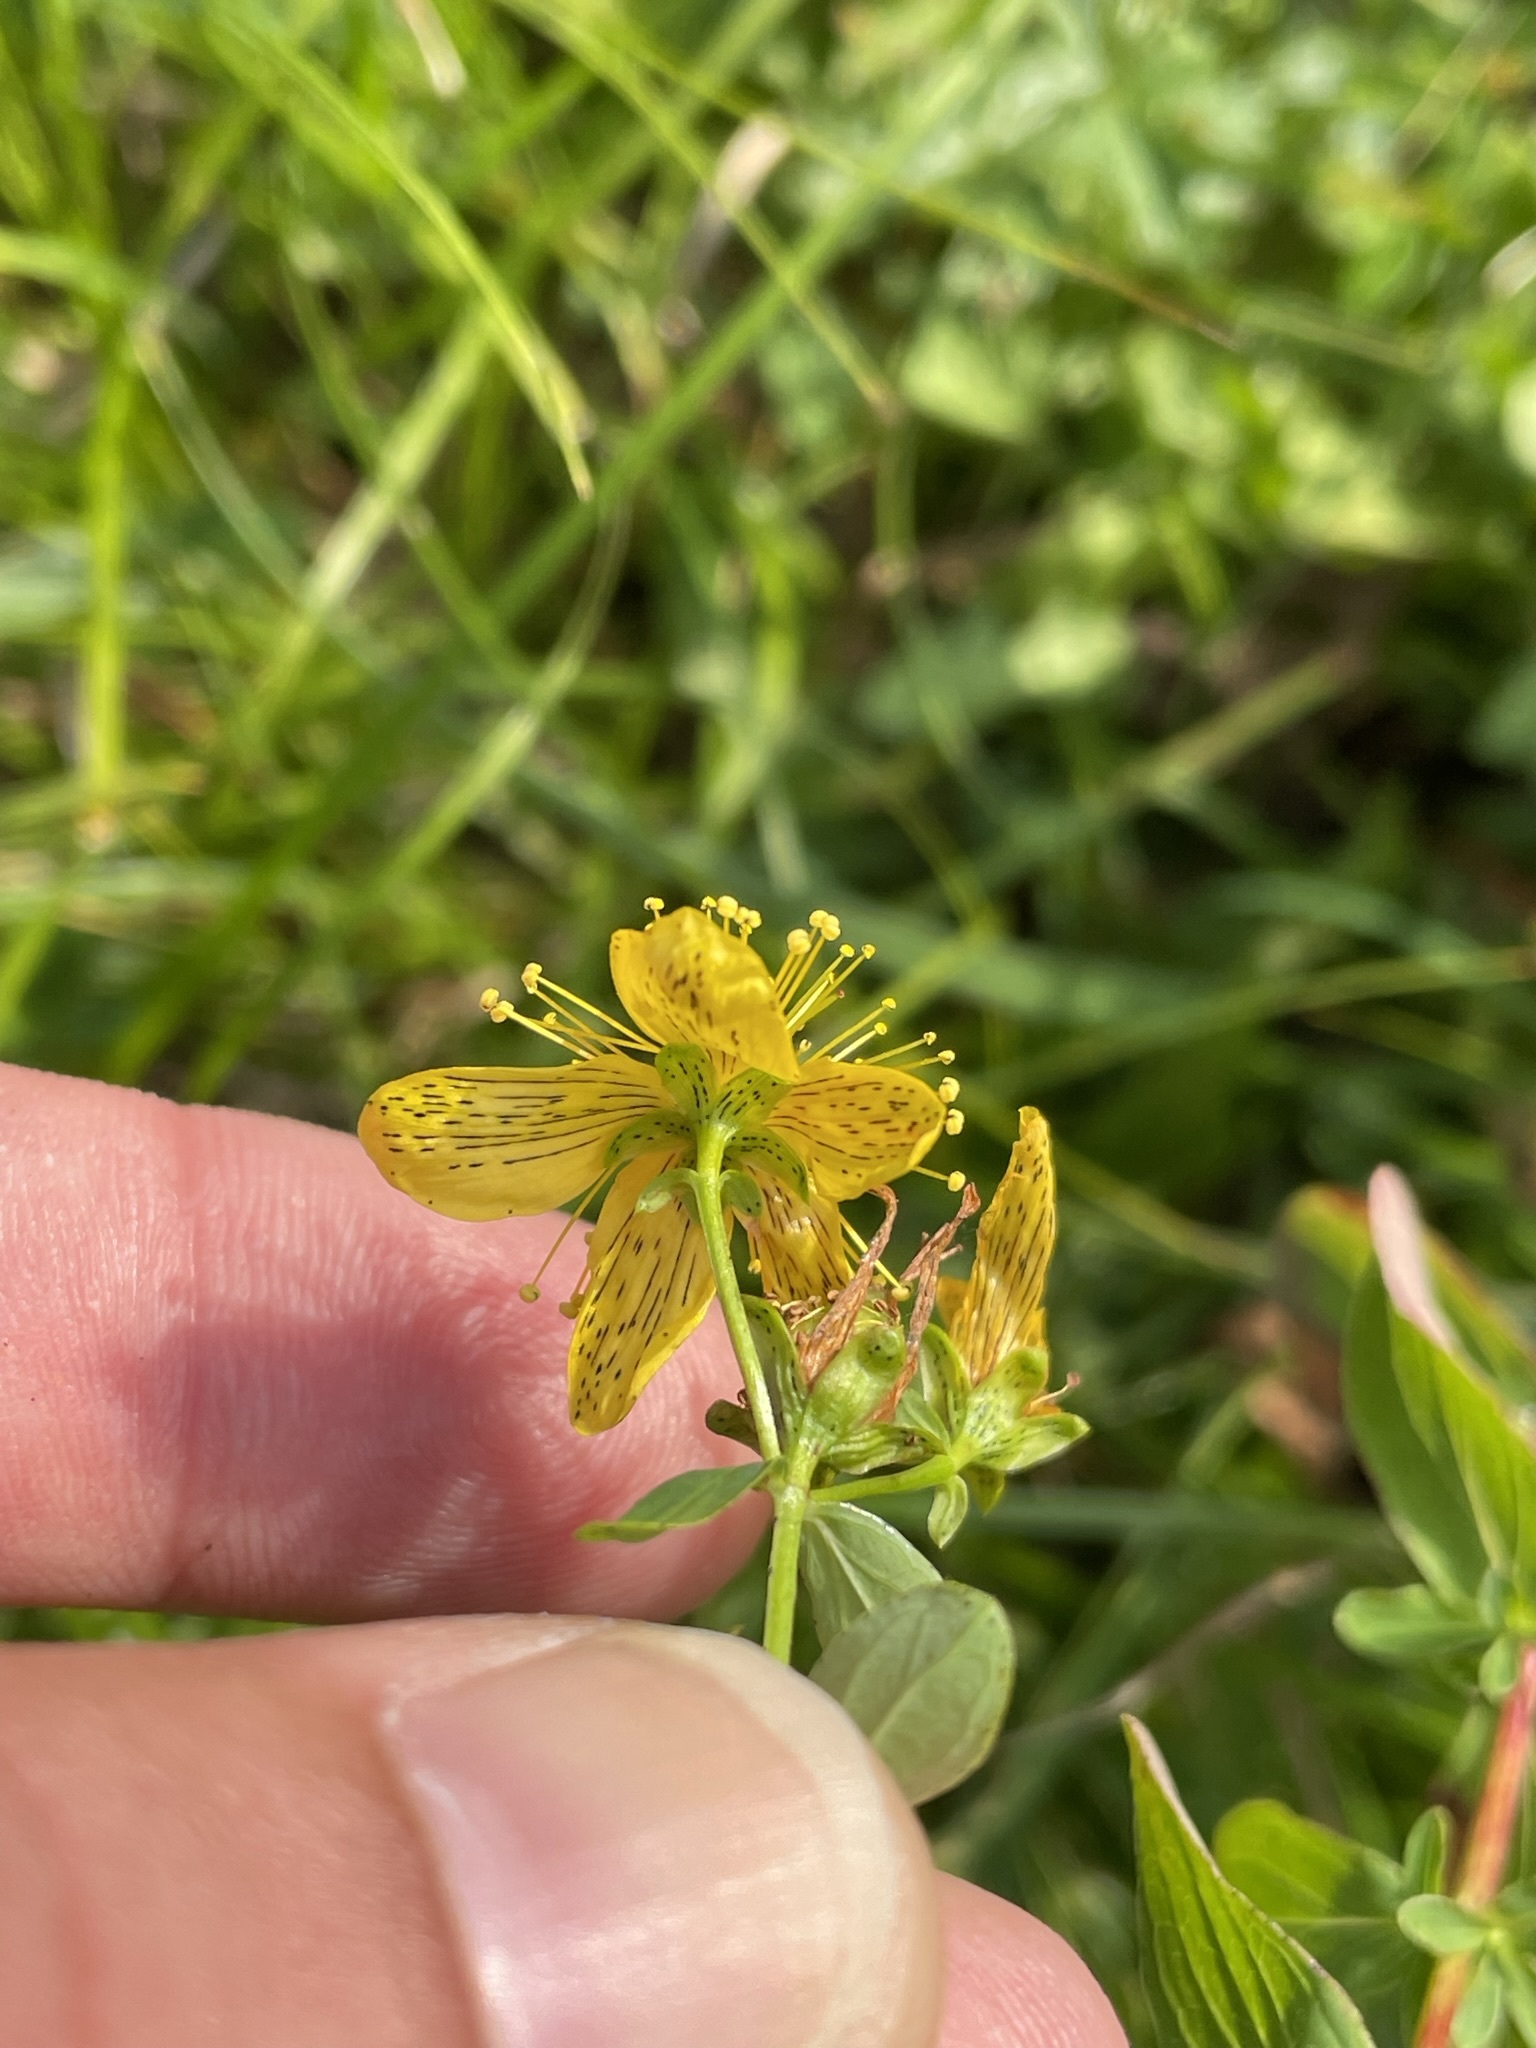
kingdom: Plantae
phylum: Tracheophyta
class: Magnoliopsida
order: Malpighiales
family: Hypericaceae
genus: Hypericum
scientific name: Hypericum maculatum
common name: Imperforate st. john's-wort
